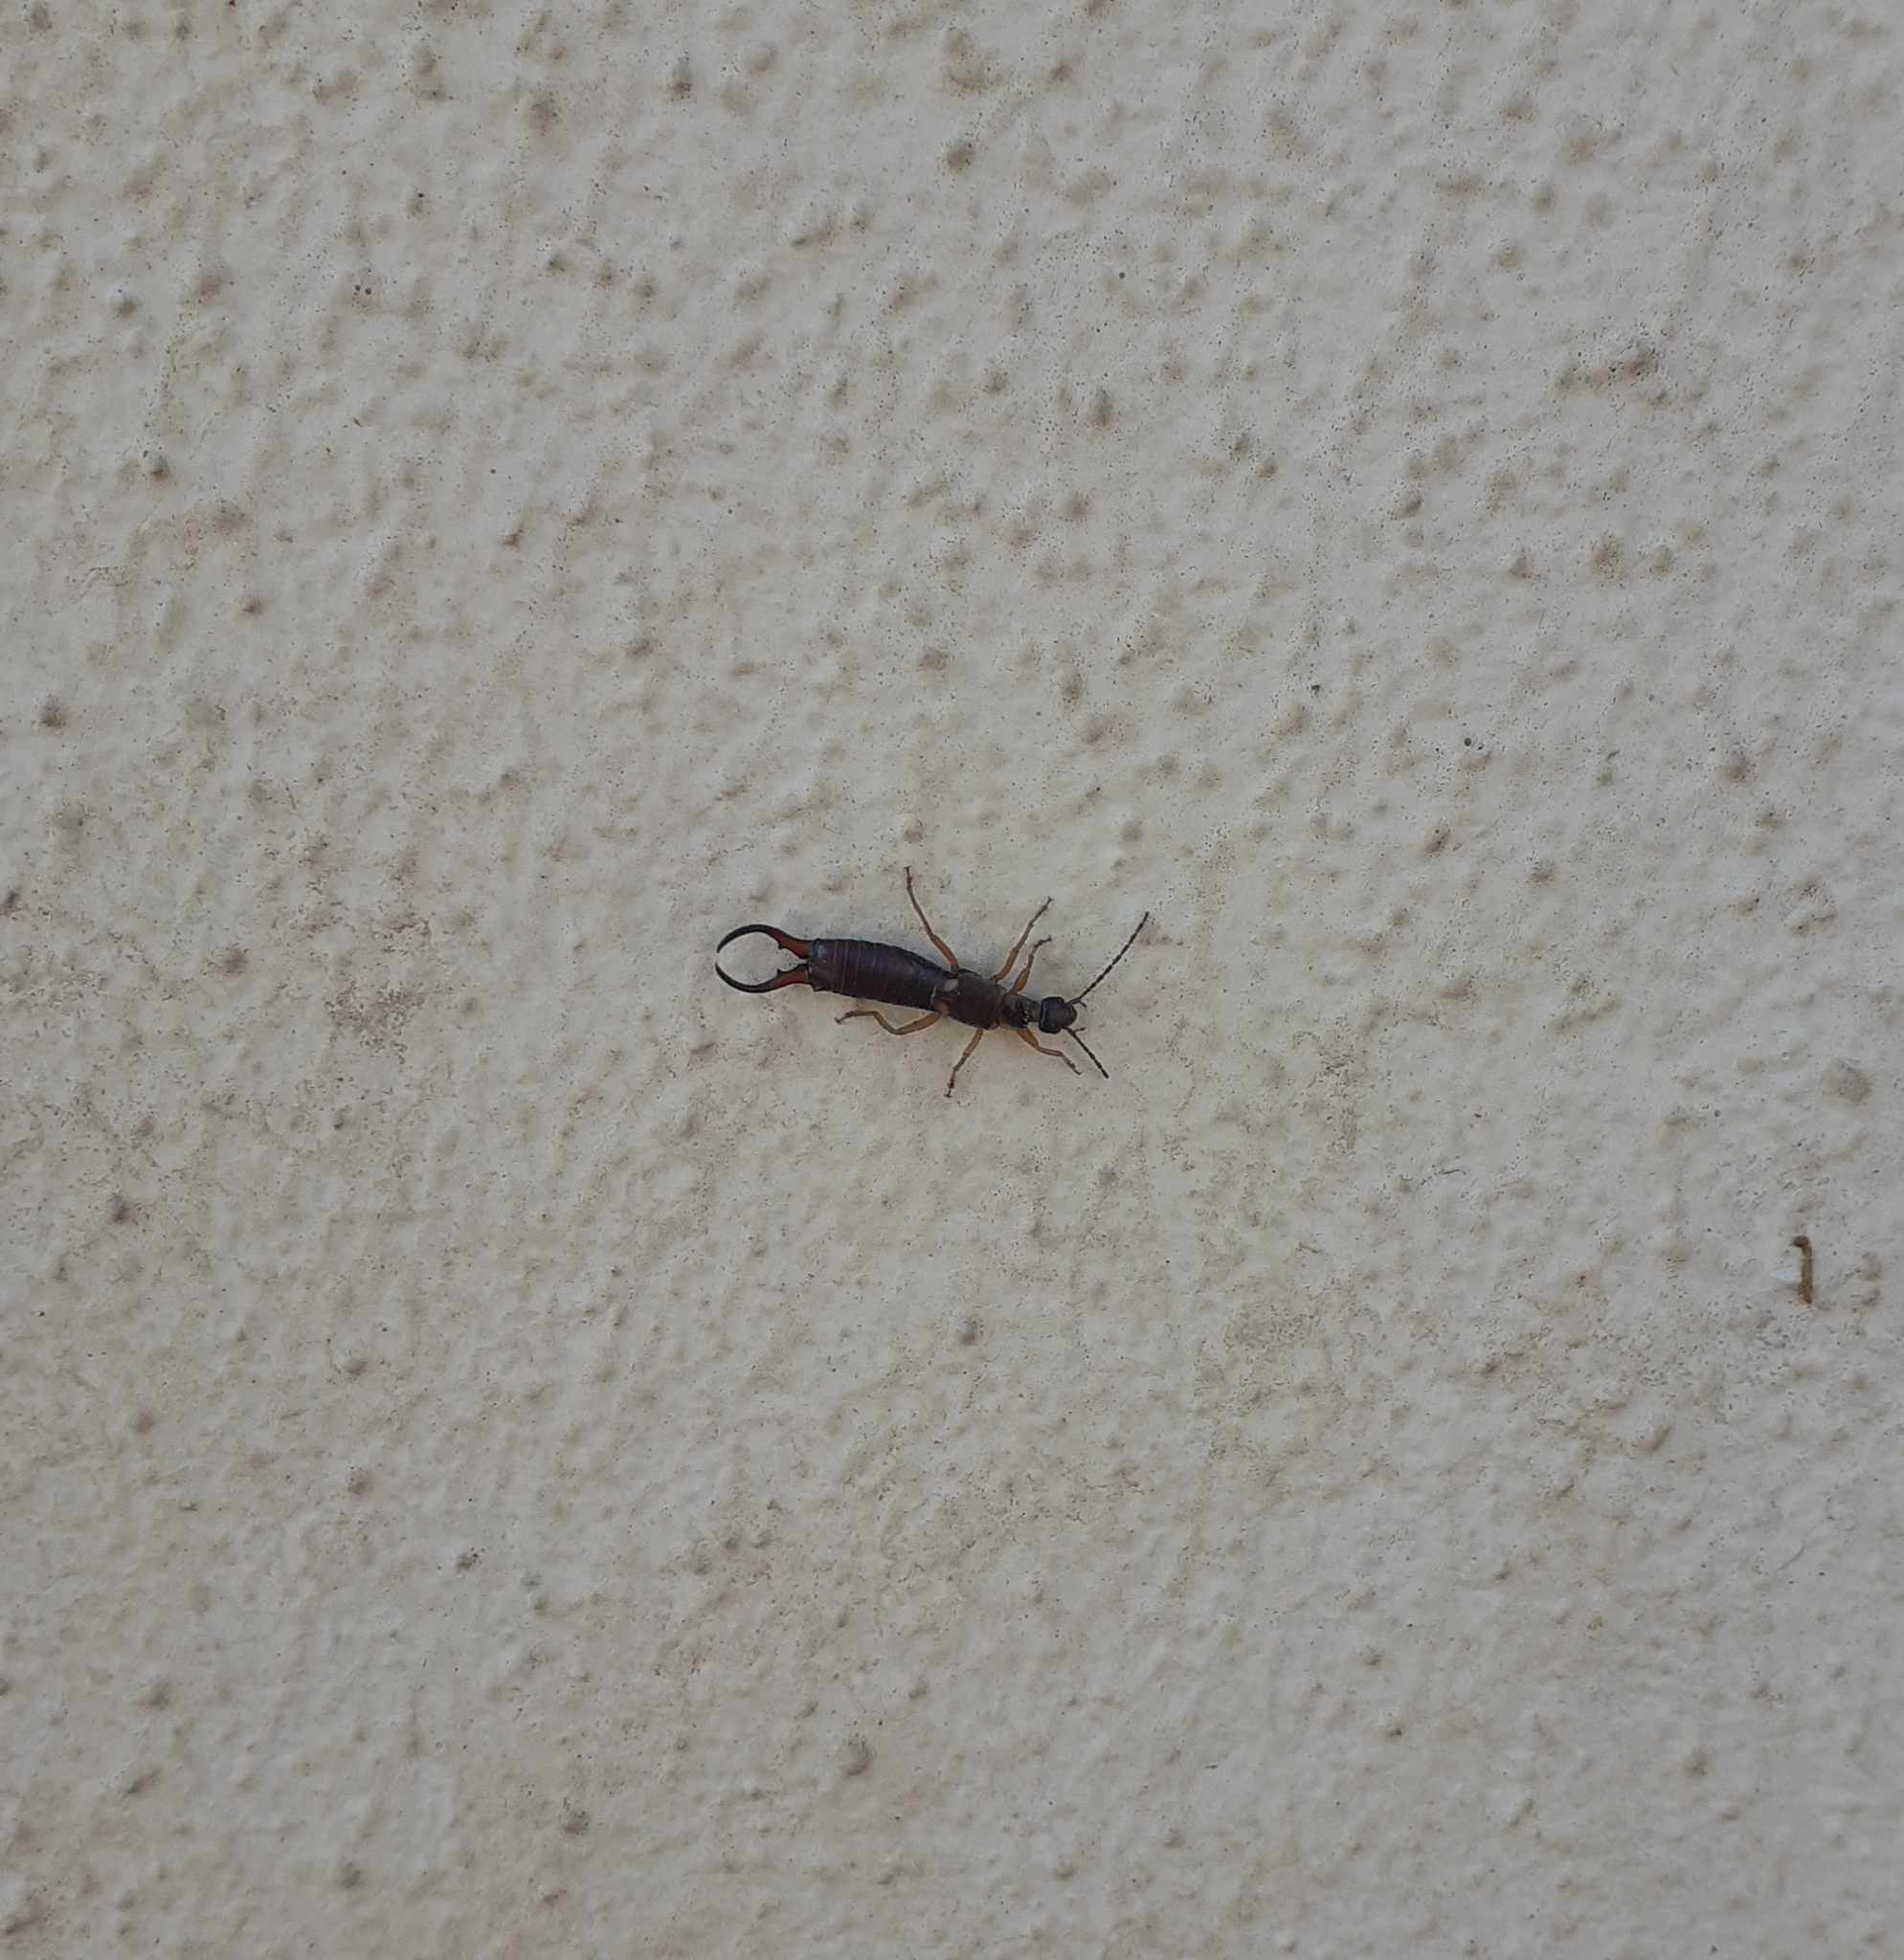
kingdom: Animalia
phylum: Arthropoda
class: Insecta
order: Dermaptera
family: Forficulidae
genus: Forficula
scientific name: Forficula
